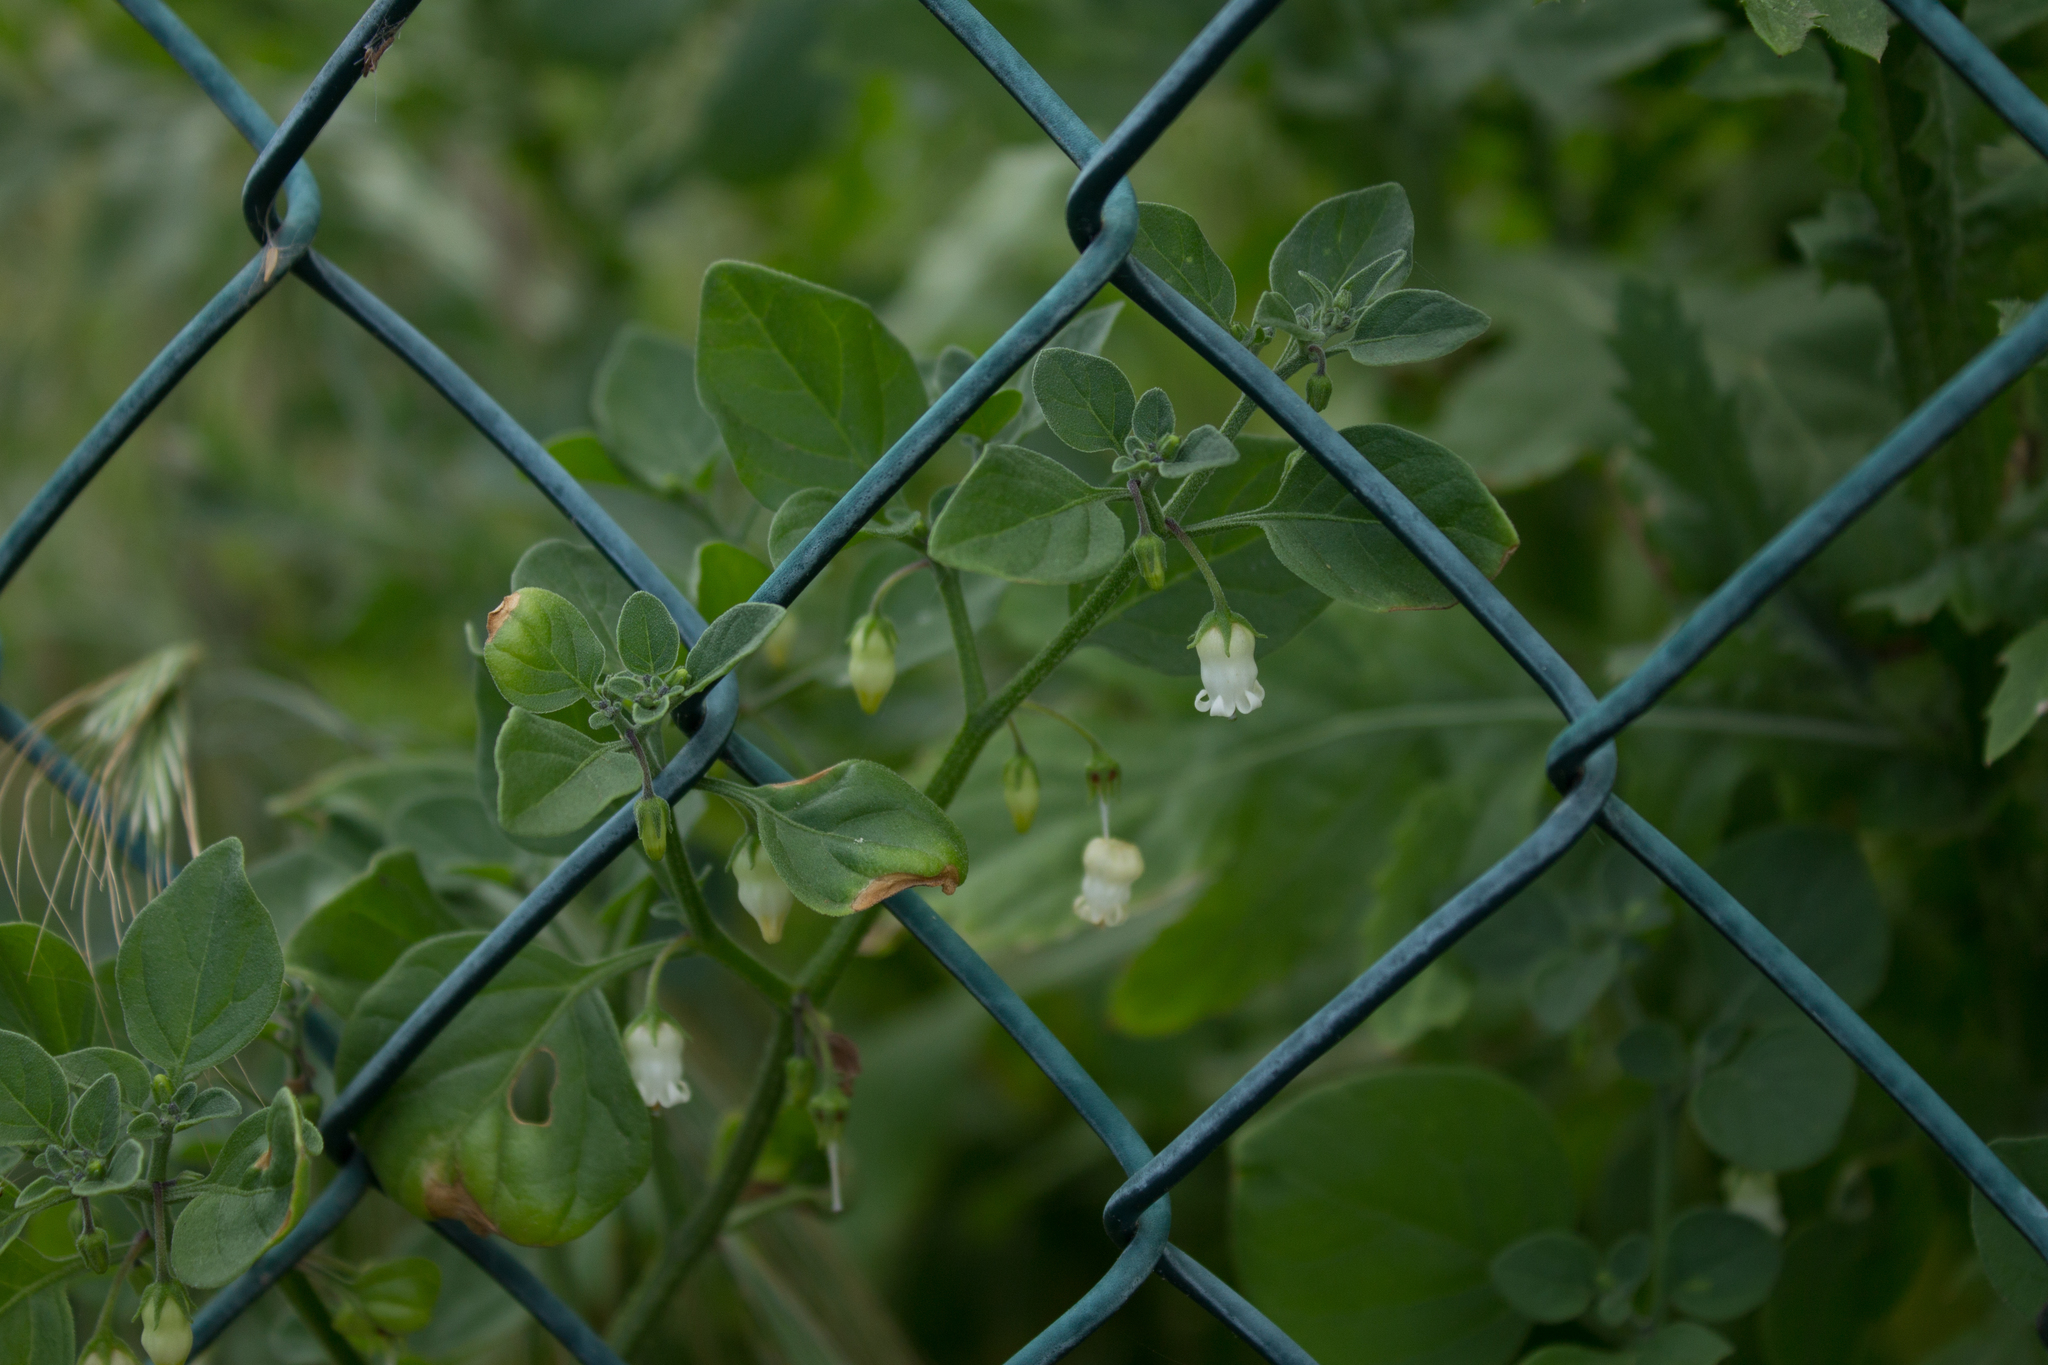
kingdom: Plantae
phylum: Tracheophyta
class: Magnoliopsida
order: Solanales
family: Solanaceae
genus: Salpichroa
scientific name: Salpichroa origanifolia
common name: Lily-of-the-valley-vine
